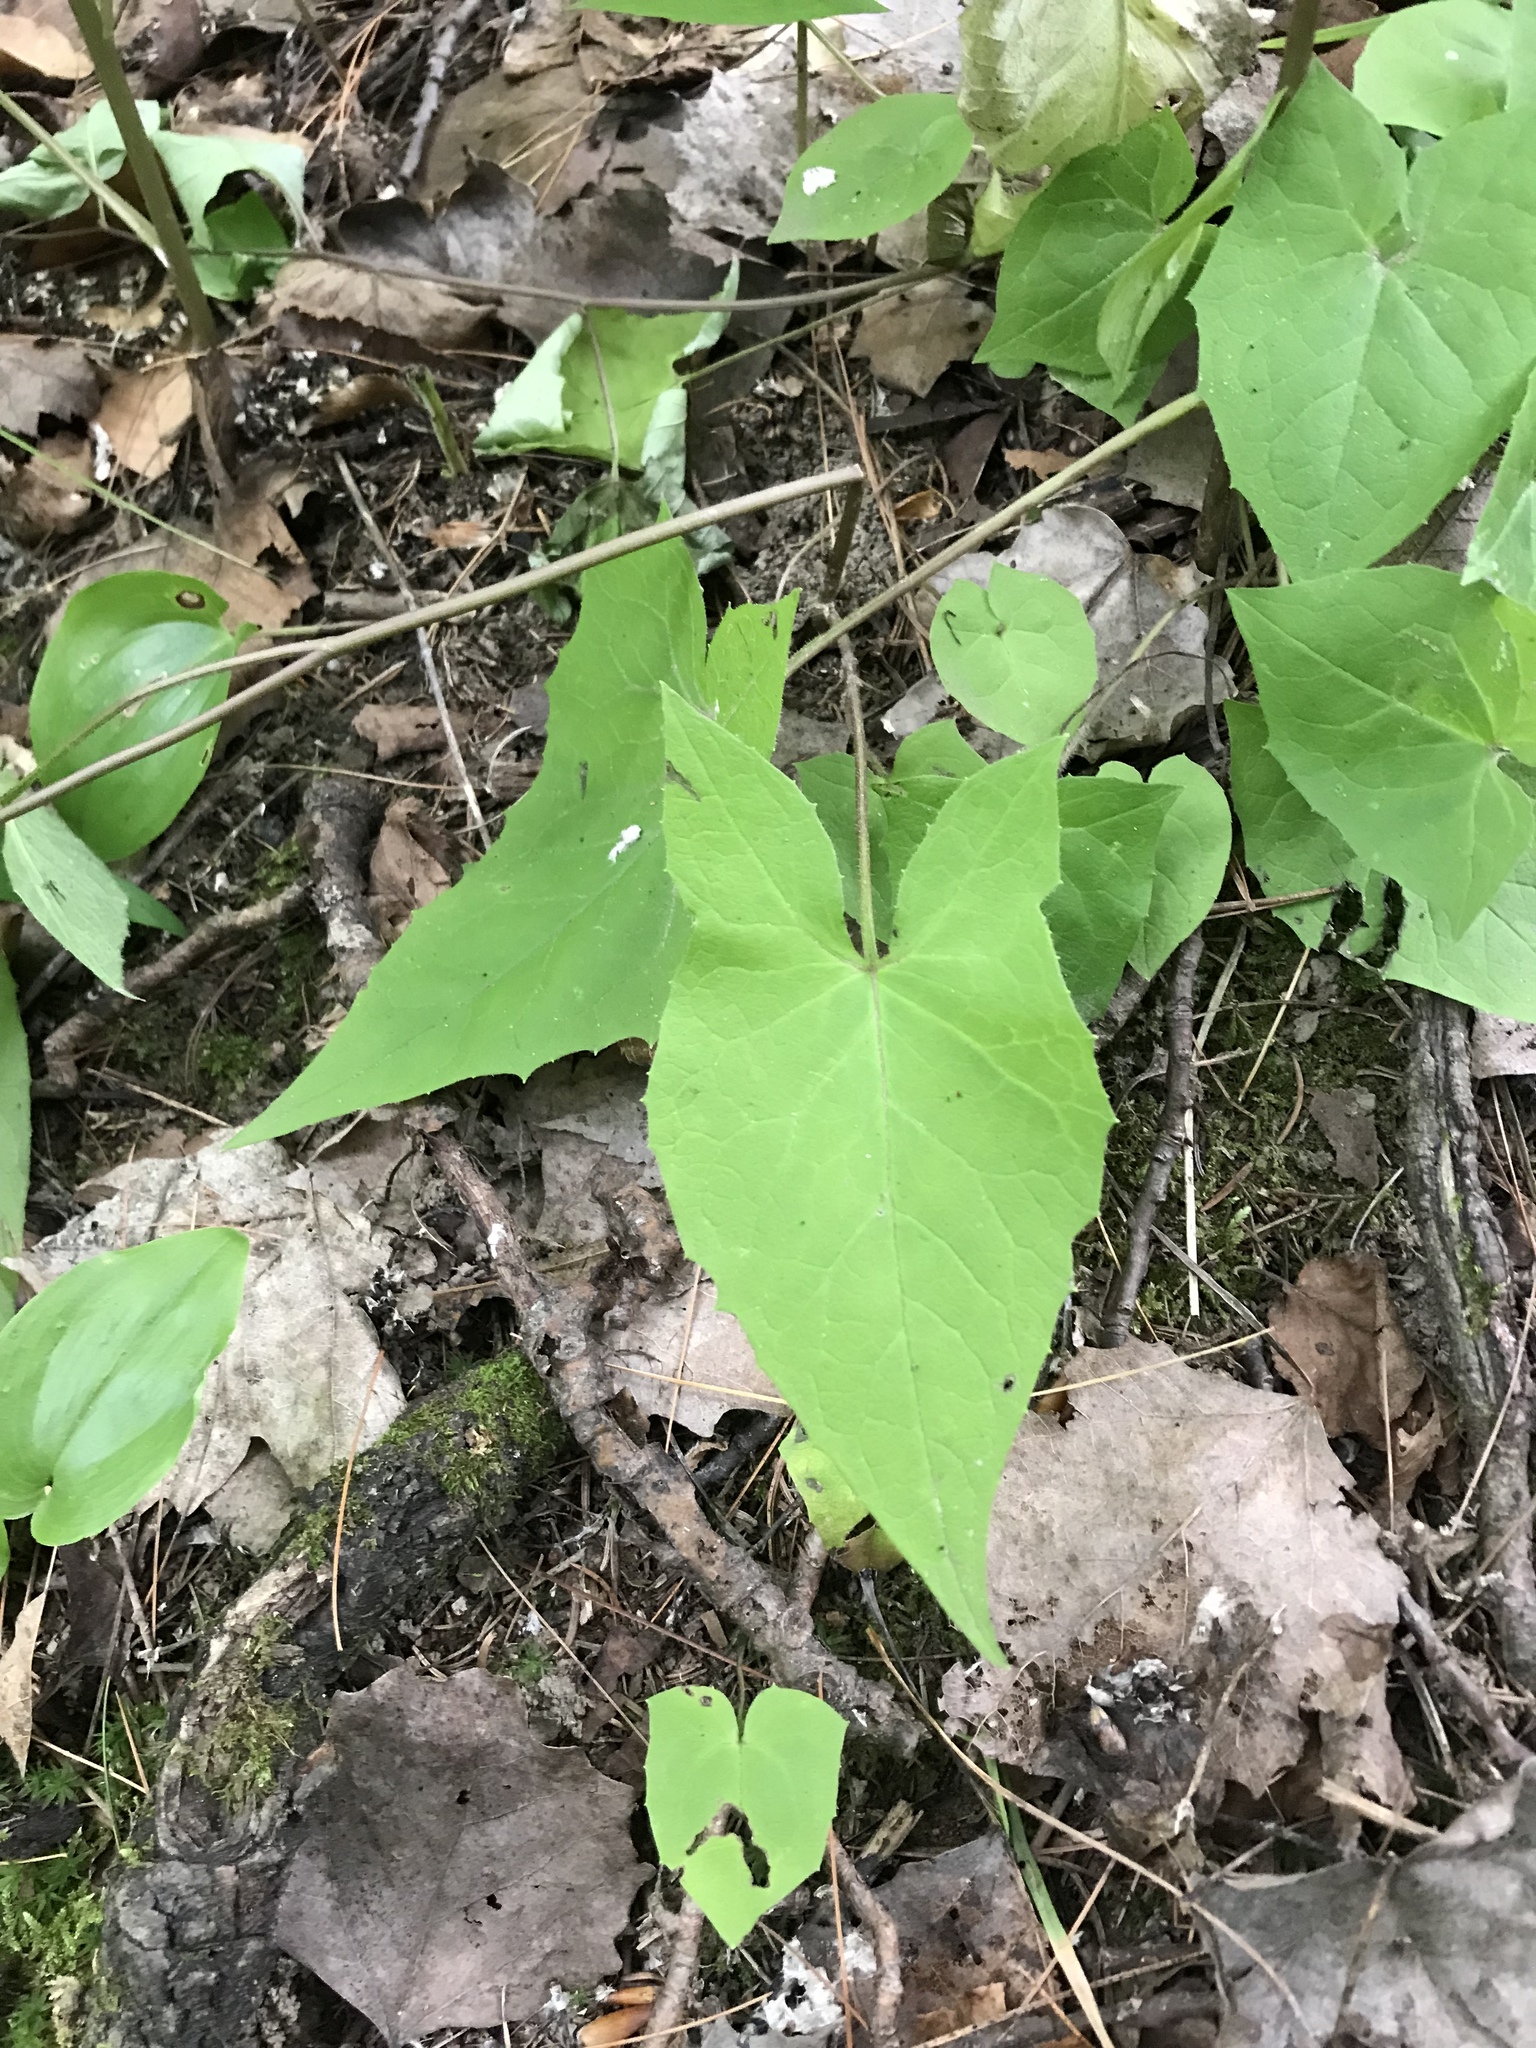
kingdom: Plantae
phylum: Tracheophyta
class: Magnoliopsida
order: Asterales
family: Asteraceae
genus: Nabalus
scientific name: Nabalus altissima
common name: Tall rattlesnakeroot
